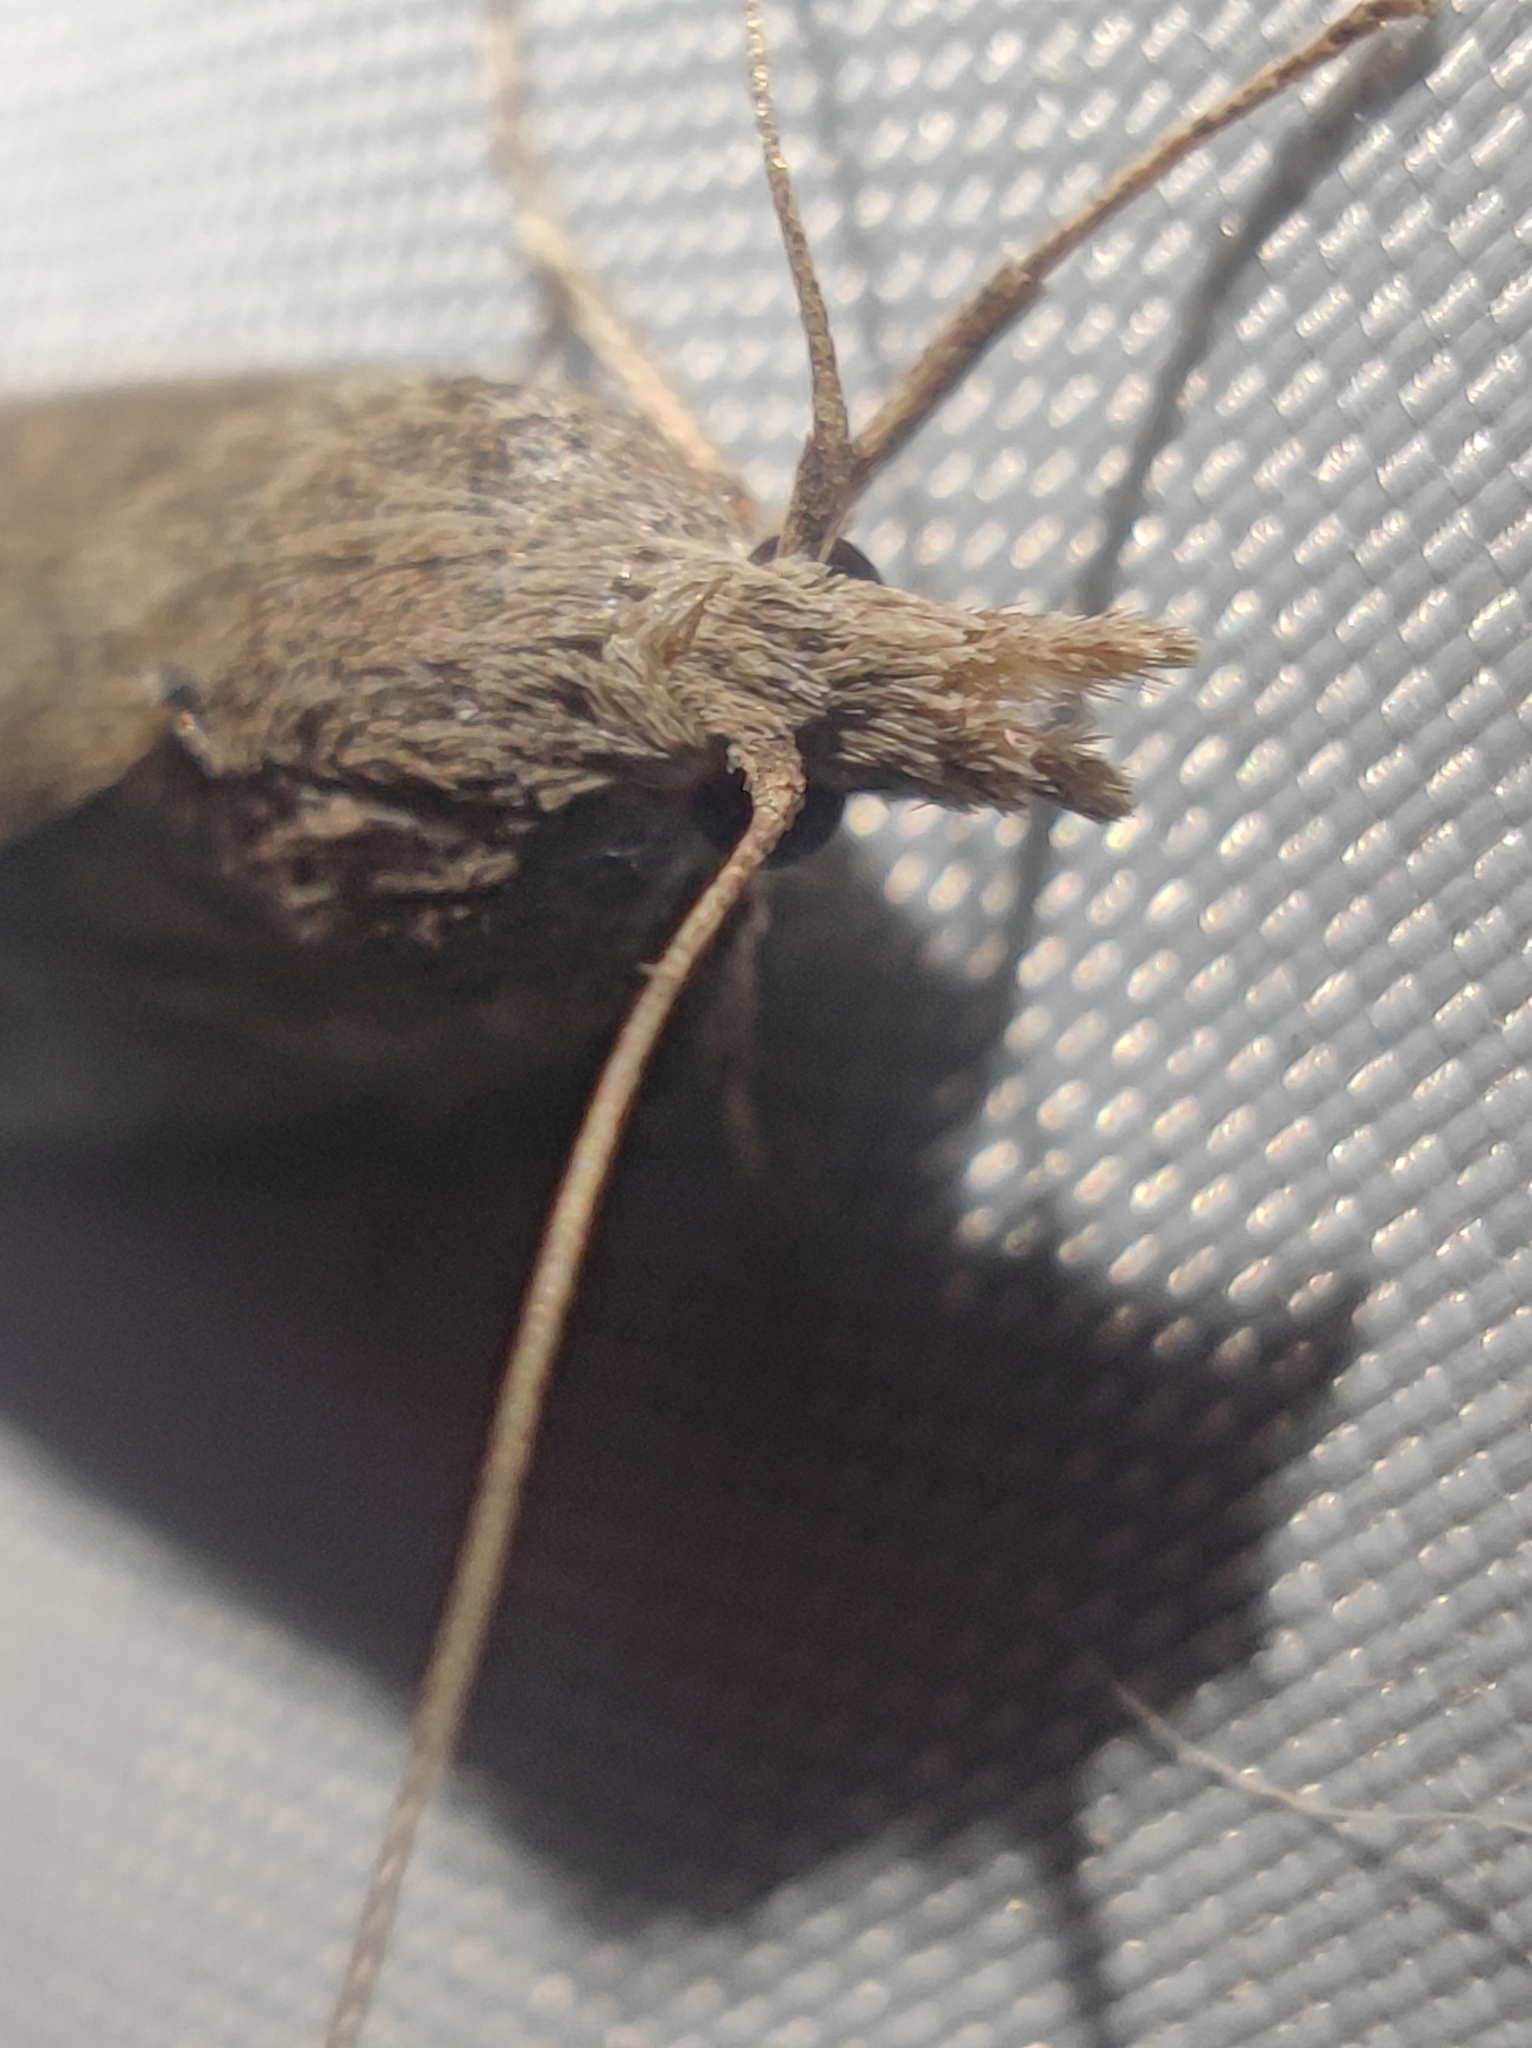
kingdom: Animalia
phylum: Arthropoda
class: Insecta
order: Lepidoptera
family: Pyralidae
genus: Lamoria
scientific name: Lamoria anella
